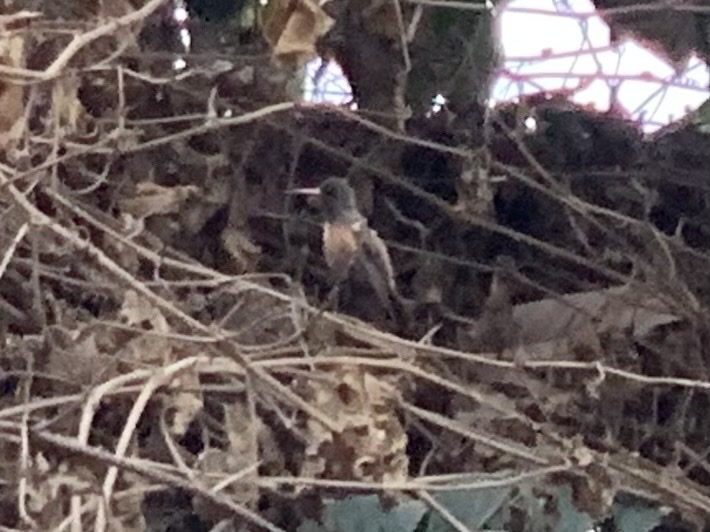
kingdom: Animalia
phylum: Chordata
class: Aves
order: Apodiformes
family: Trochilidae
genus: Amazilis
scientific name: Amazilis amazilia
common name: Amazilia hummingbird
